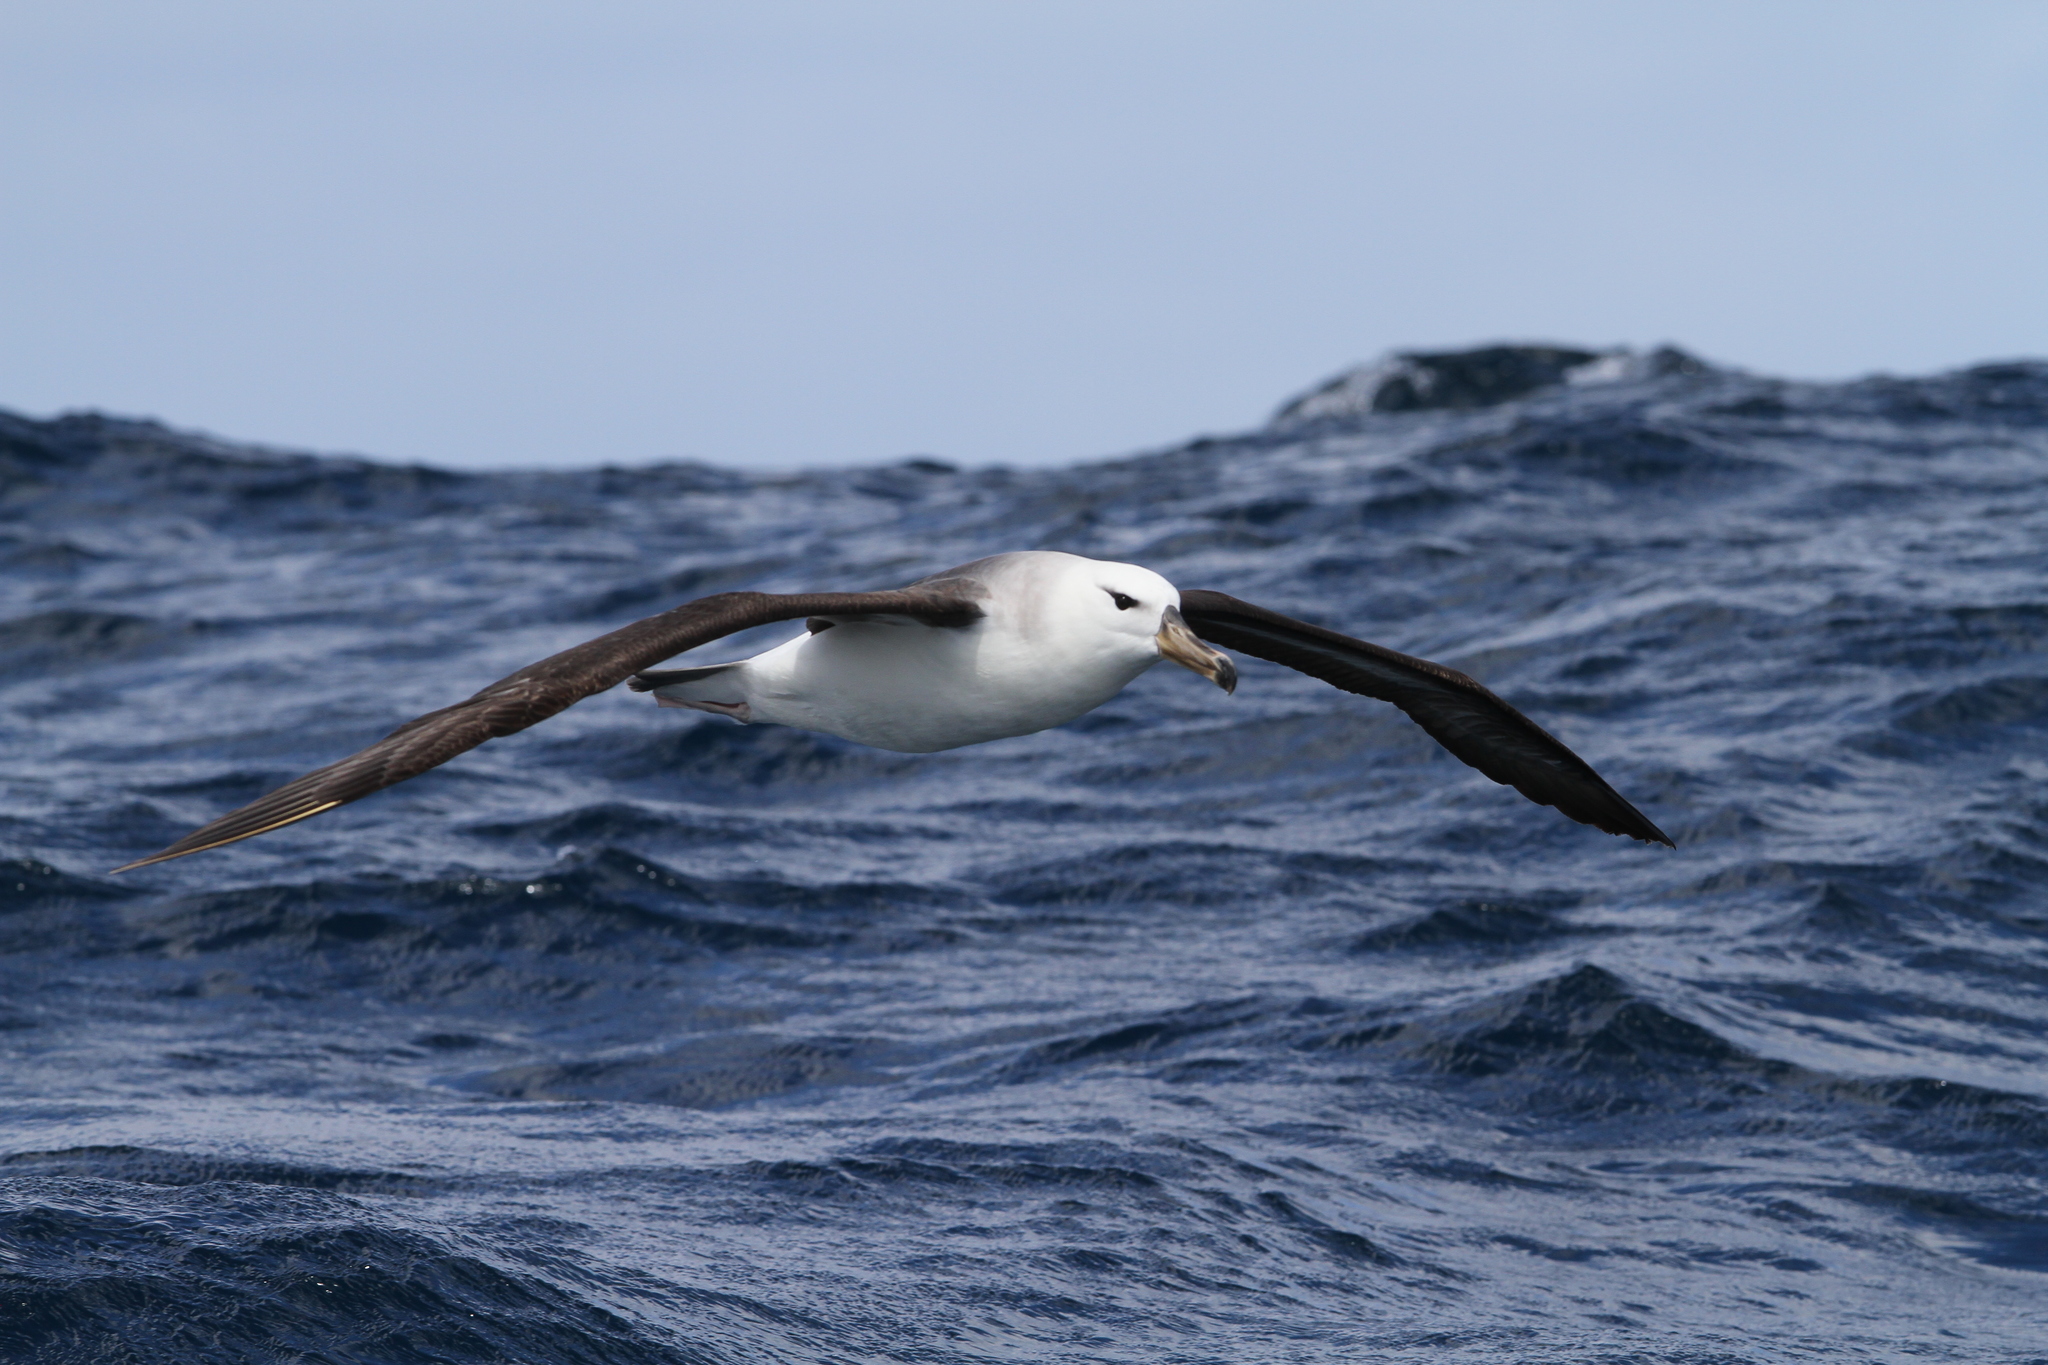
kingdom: Animalia
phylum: Chordata
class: Aves
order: Procellariiformes
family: Diomedeidae
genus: Thalassarche
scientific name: Thalassarche melanophris
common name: Black-browed albatross
